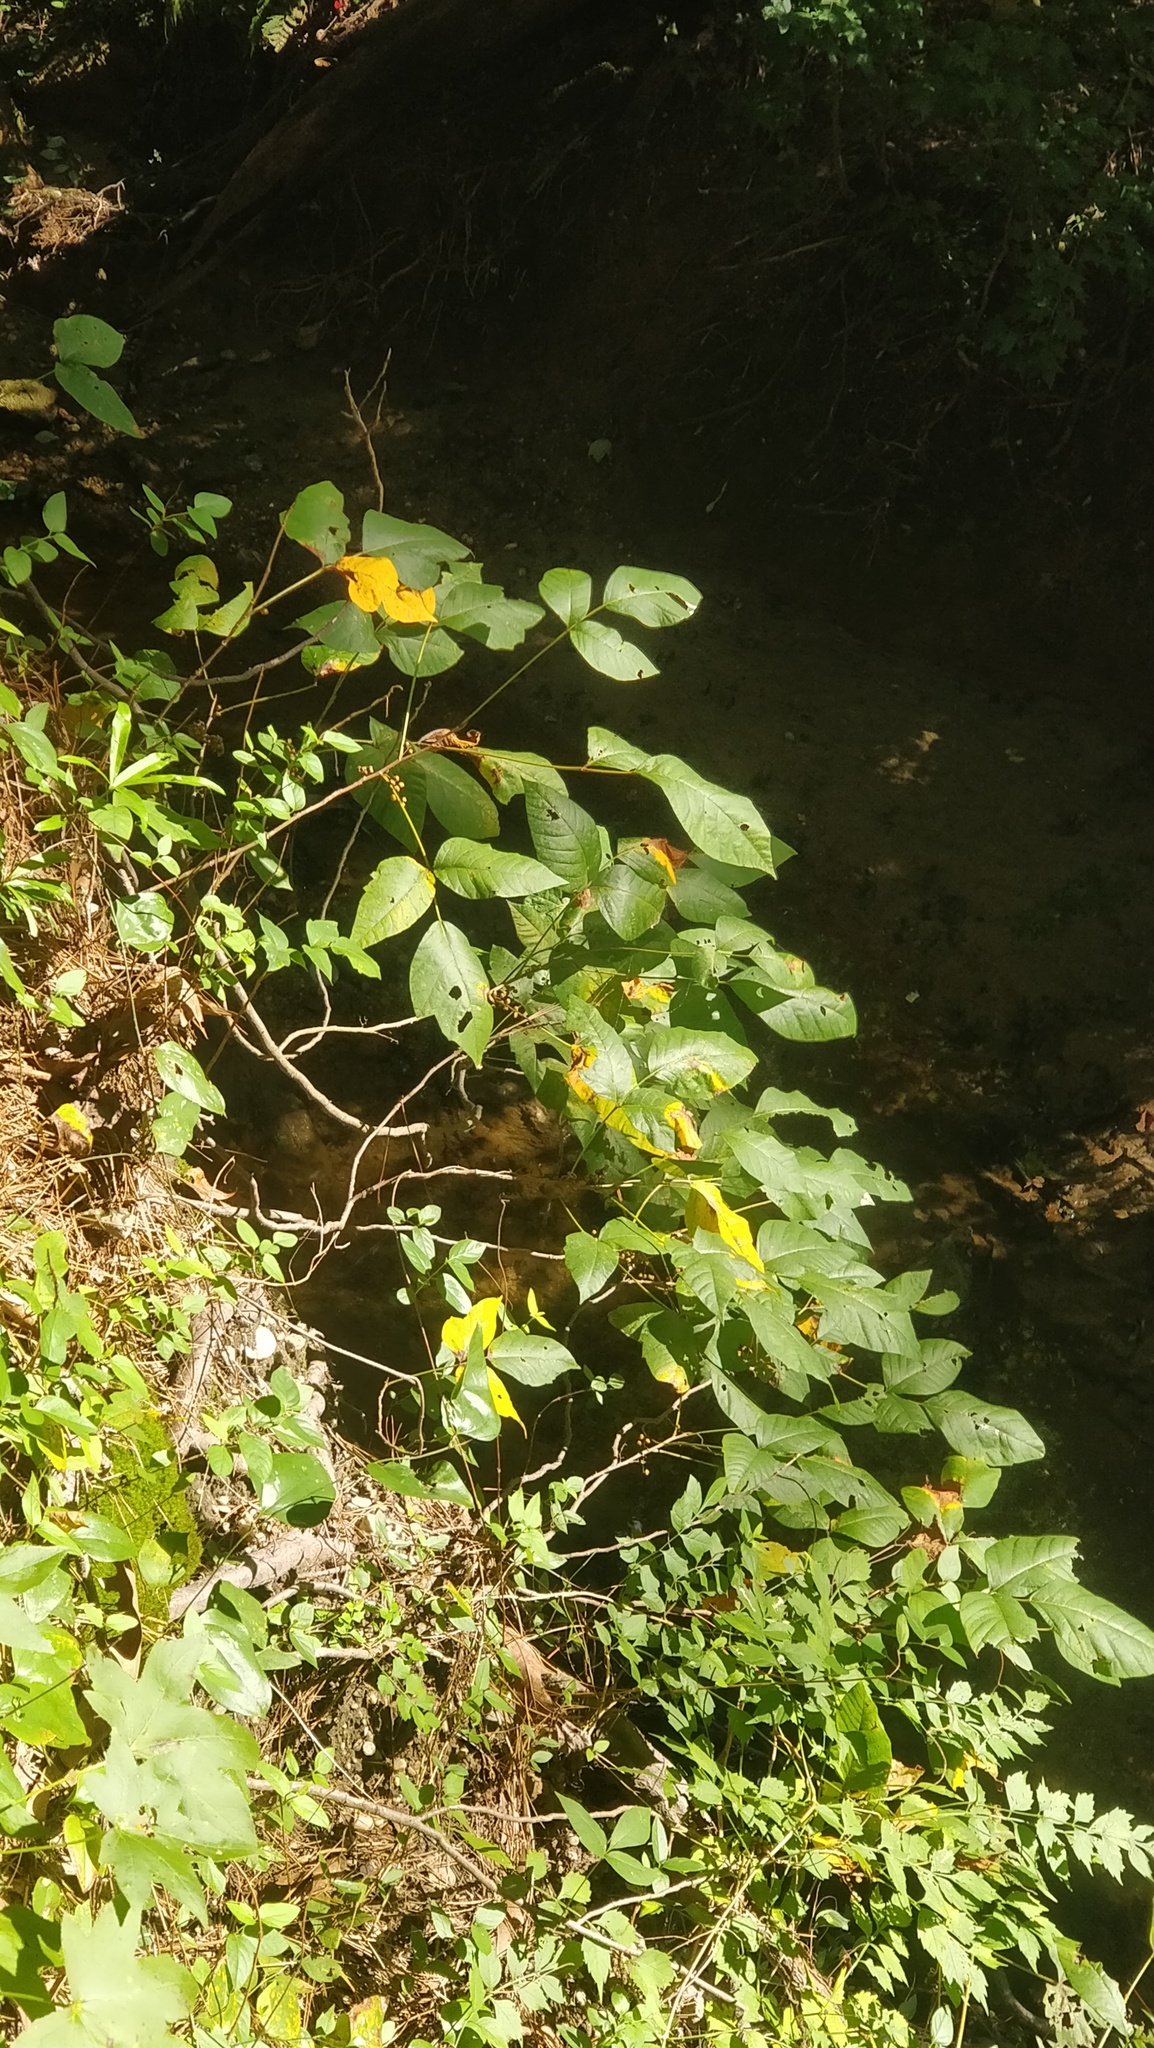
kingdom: Plantae
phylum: Tracheophyta
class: Magnoliopsida
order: Sapindales
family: Anacardiaceae
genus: Toxicodendron
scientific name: Toxicodendron radicans
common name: Poison ivy
